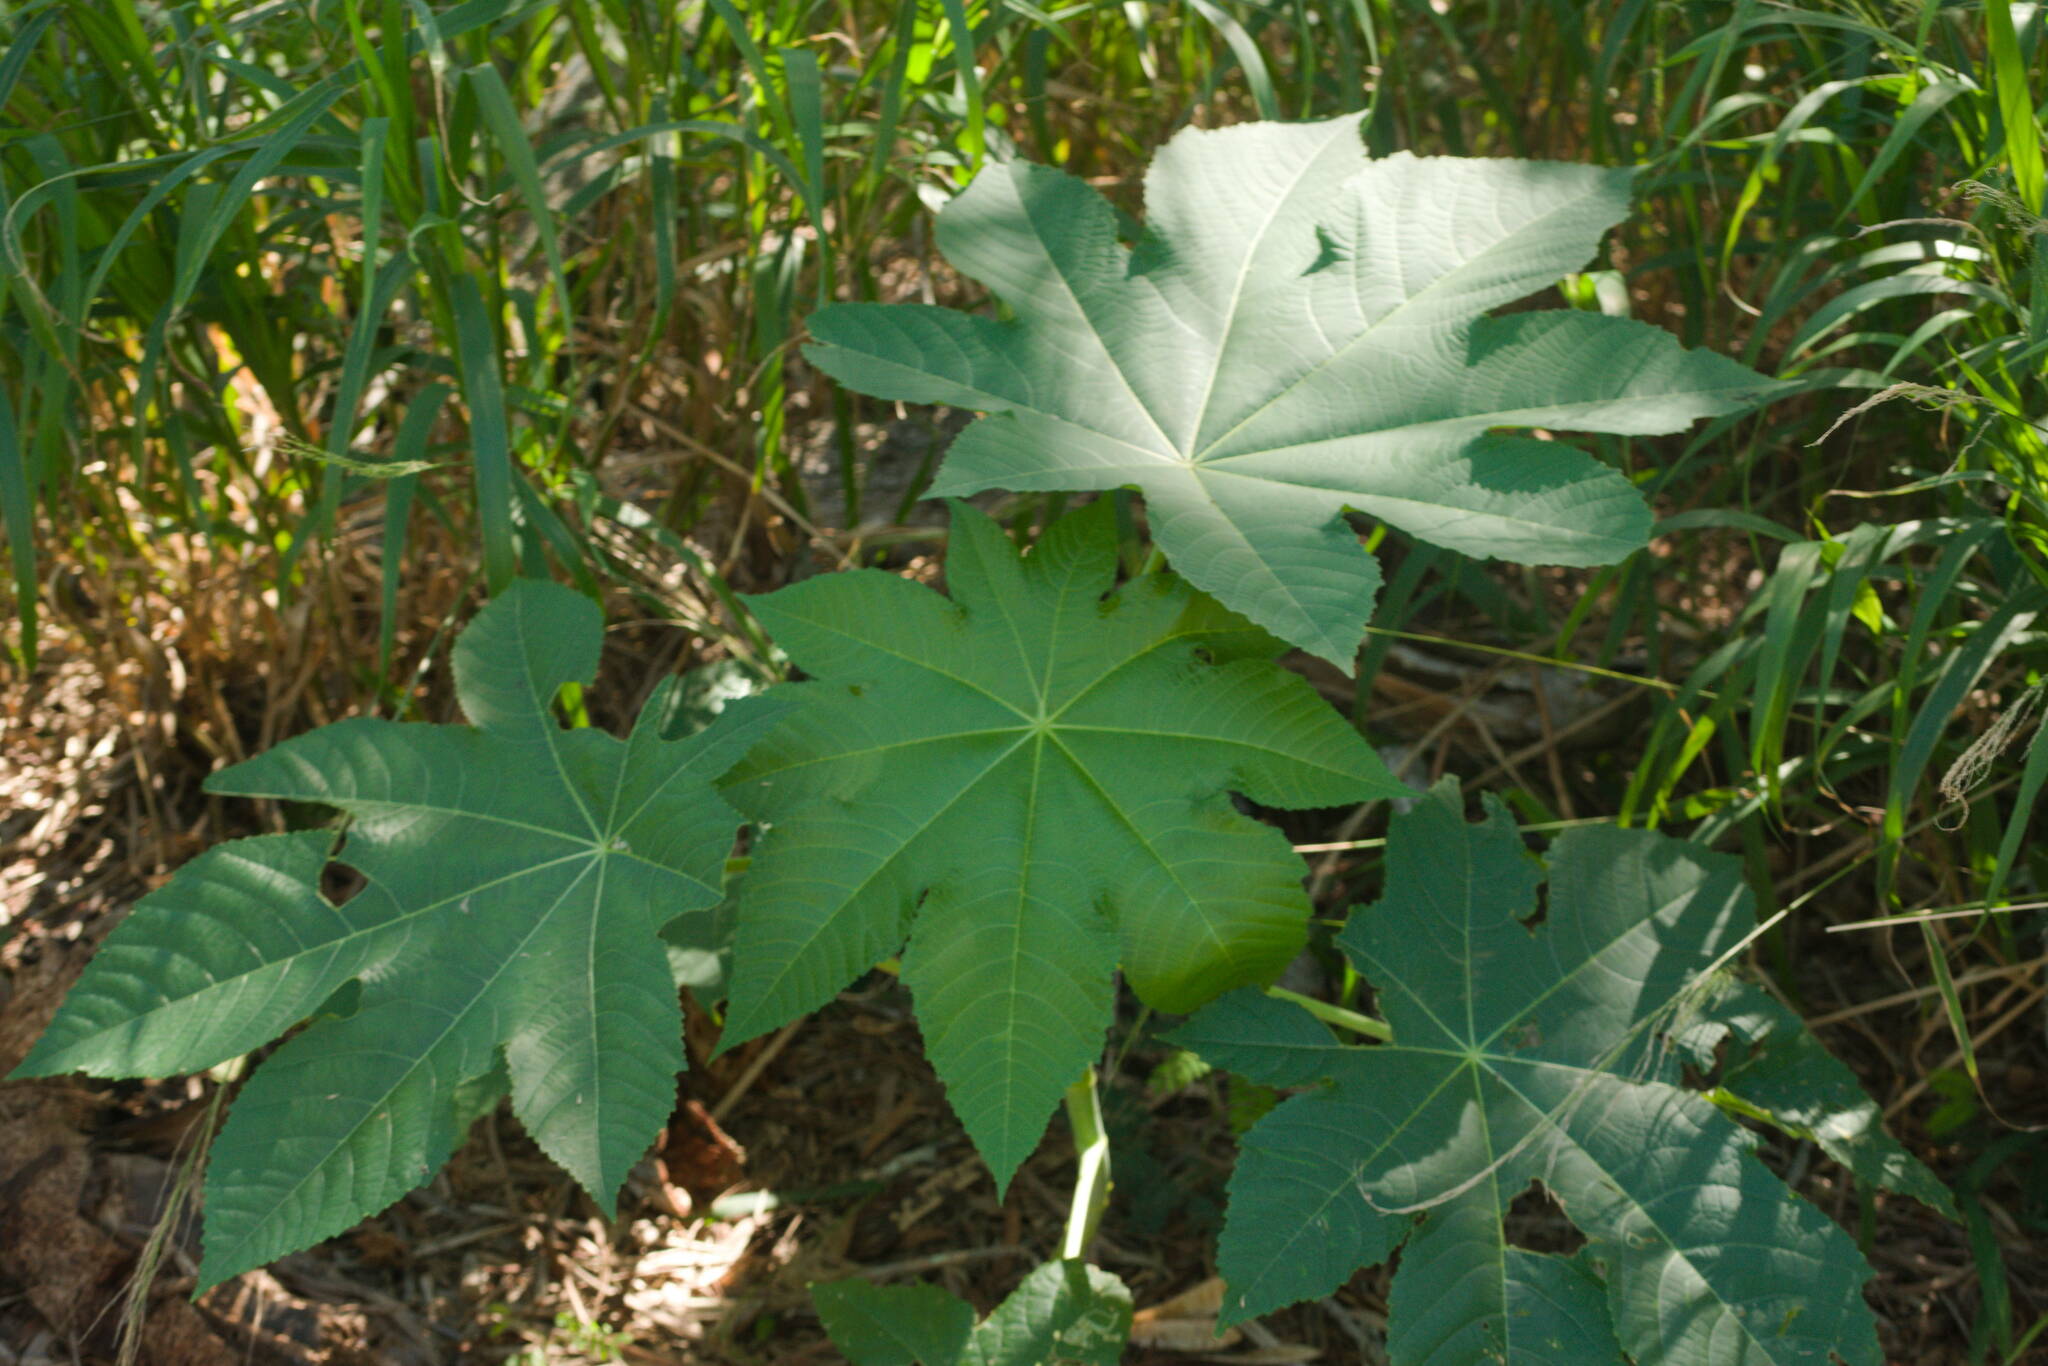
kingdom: Plantae
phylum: Tracheophyta
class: Magnoliopsida
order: Malpighiales
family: Euphorbiaceae
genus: Ricinus
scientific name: Ricinus communis
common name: Castor-oil-plant
